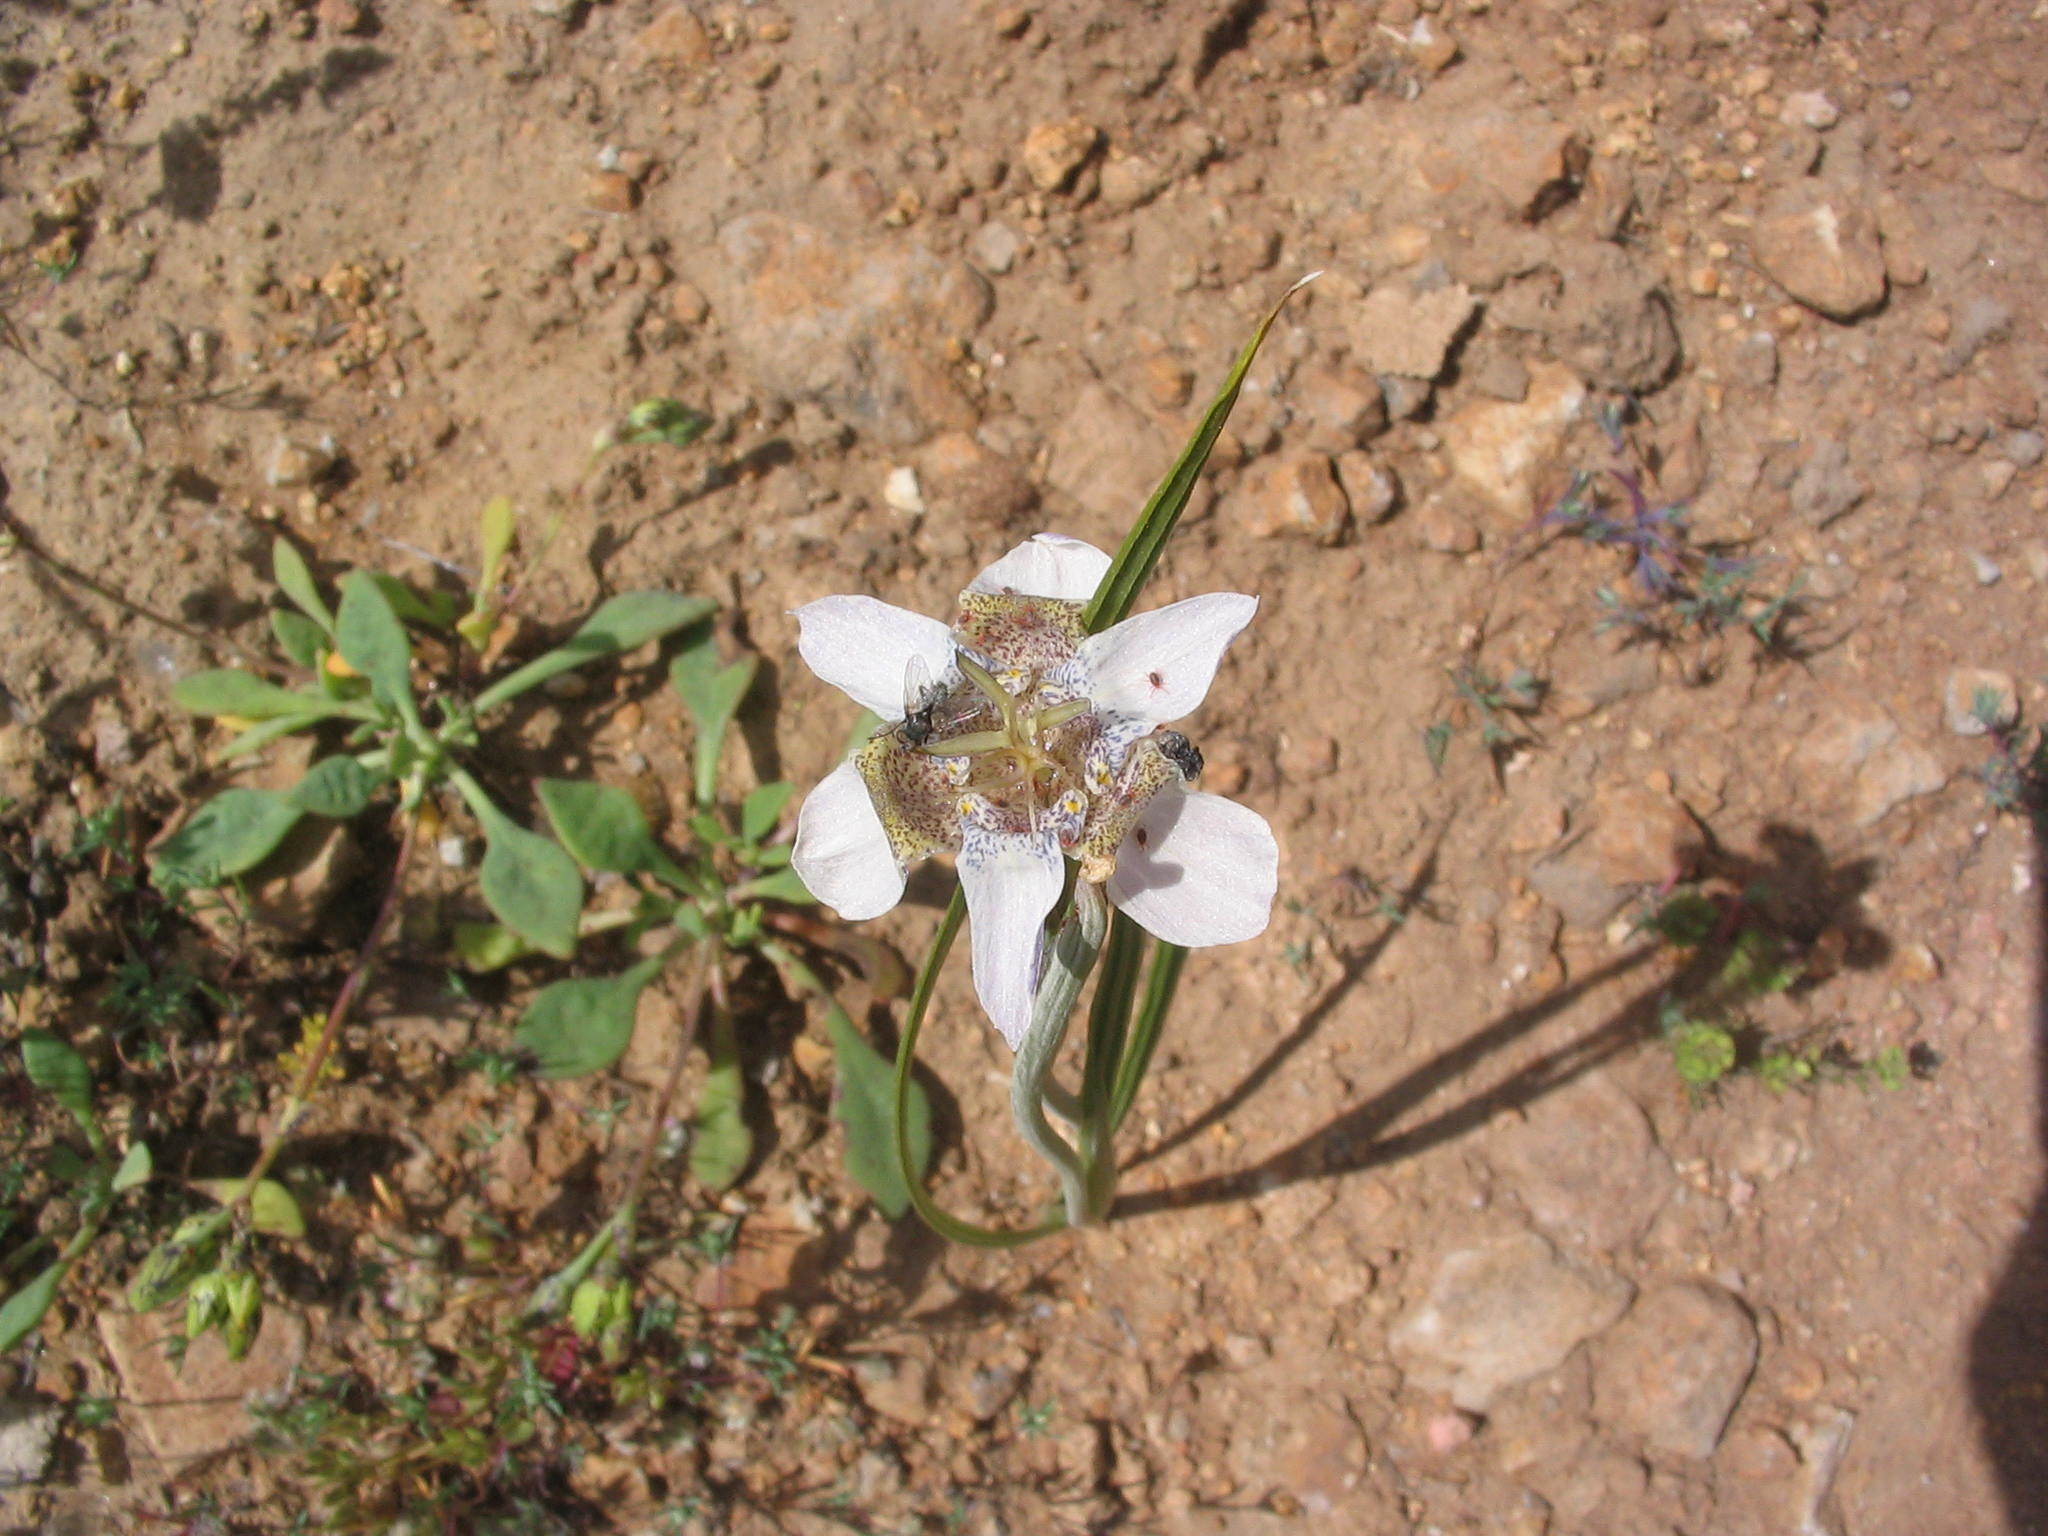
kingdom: Plantae
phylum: Tracheophyta
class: Liliopsida
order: Asparagales
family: Iridaceae
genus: Tigridia
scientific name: Tigridia arequipensis
